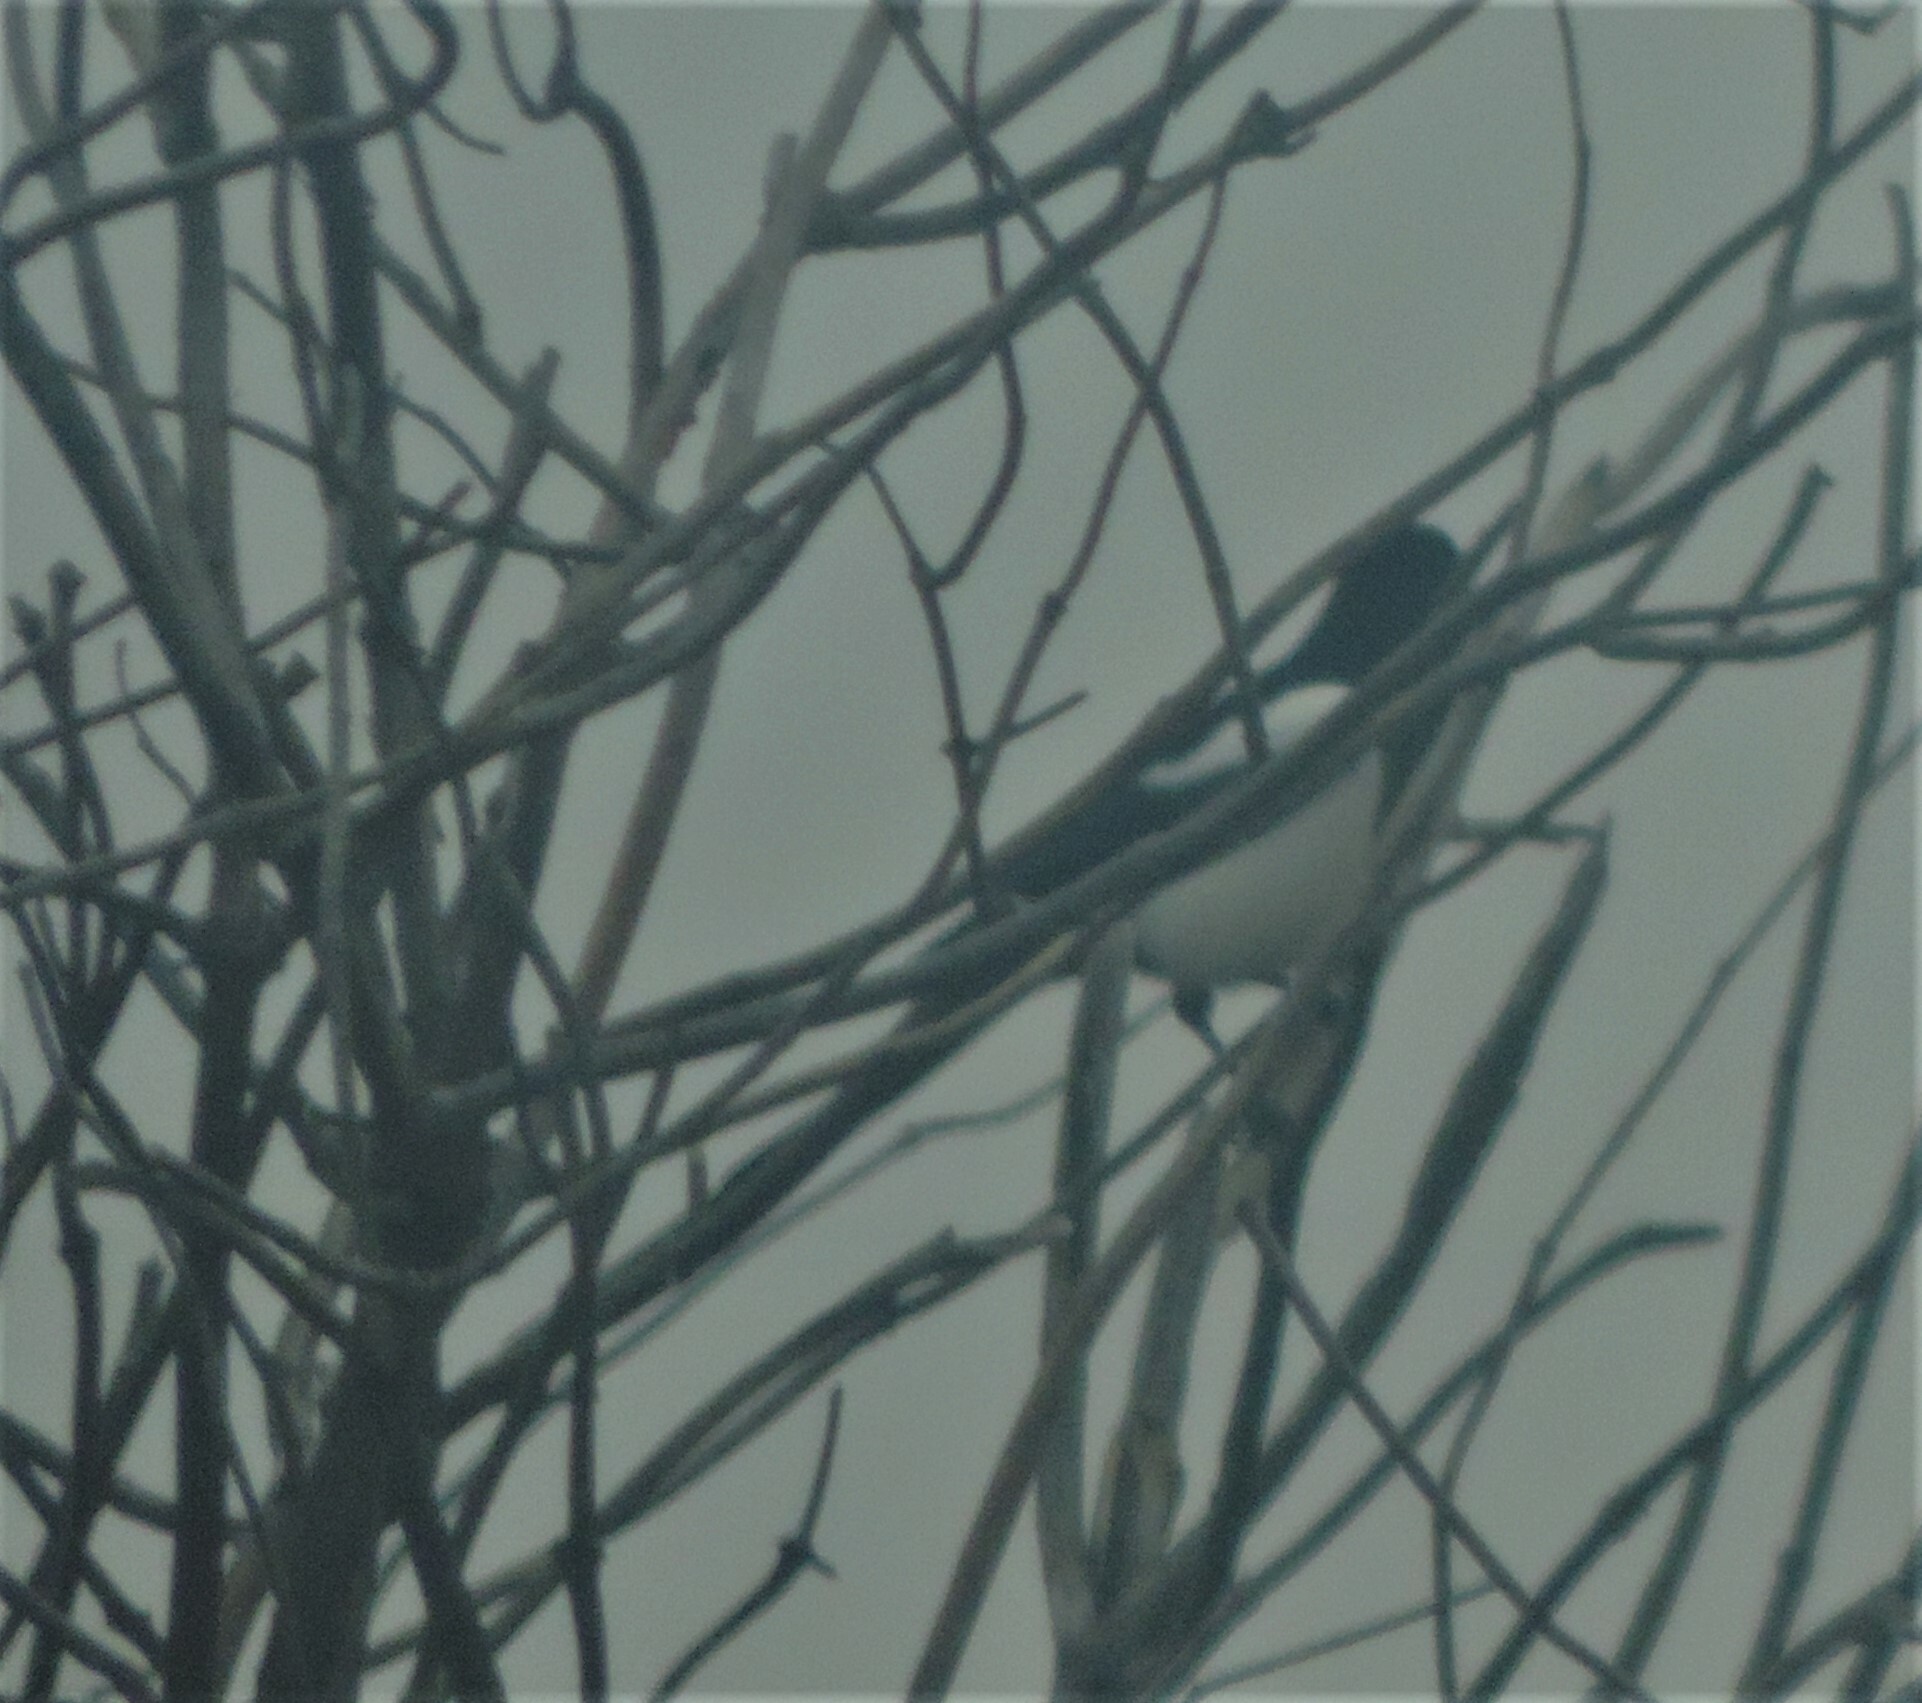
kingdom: Animalia
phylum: Chordata
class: Aves
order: Passeriformes
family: Corvidae
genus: Pica
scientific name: Pica hudsonia
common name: Black-billed magpie
